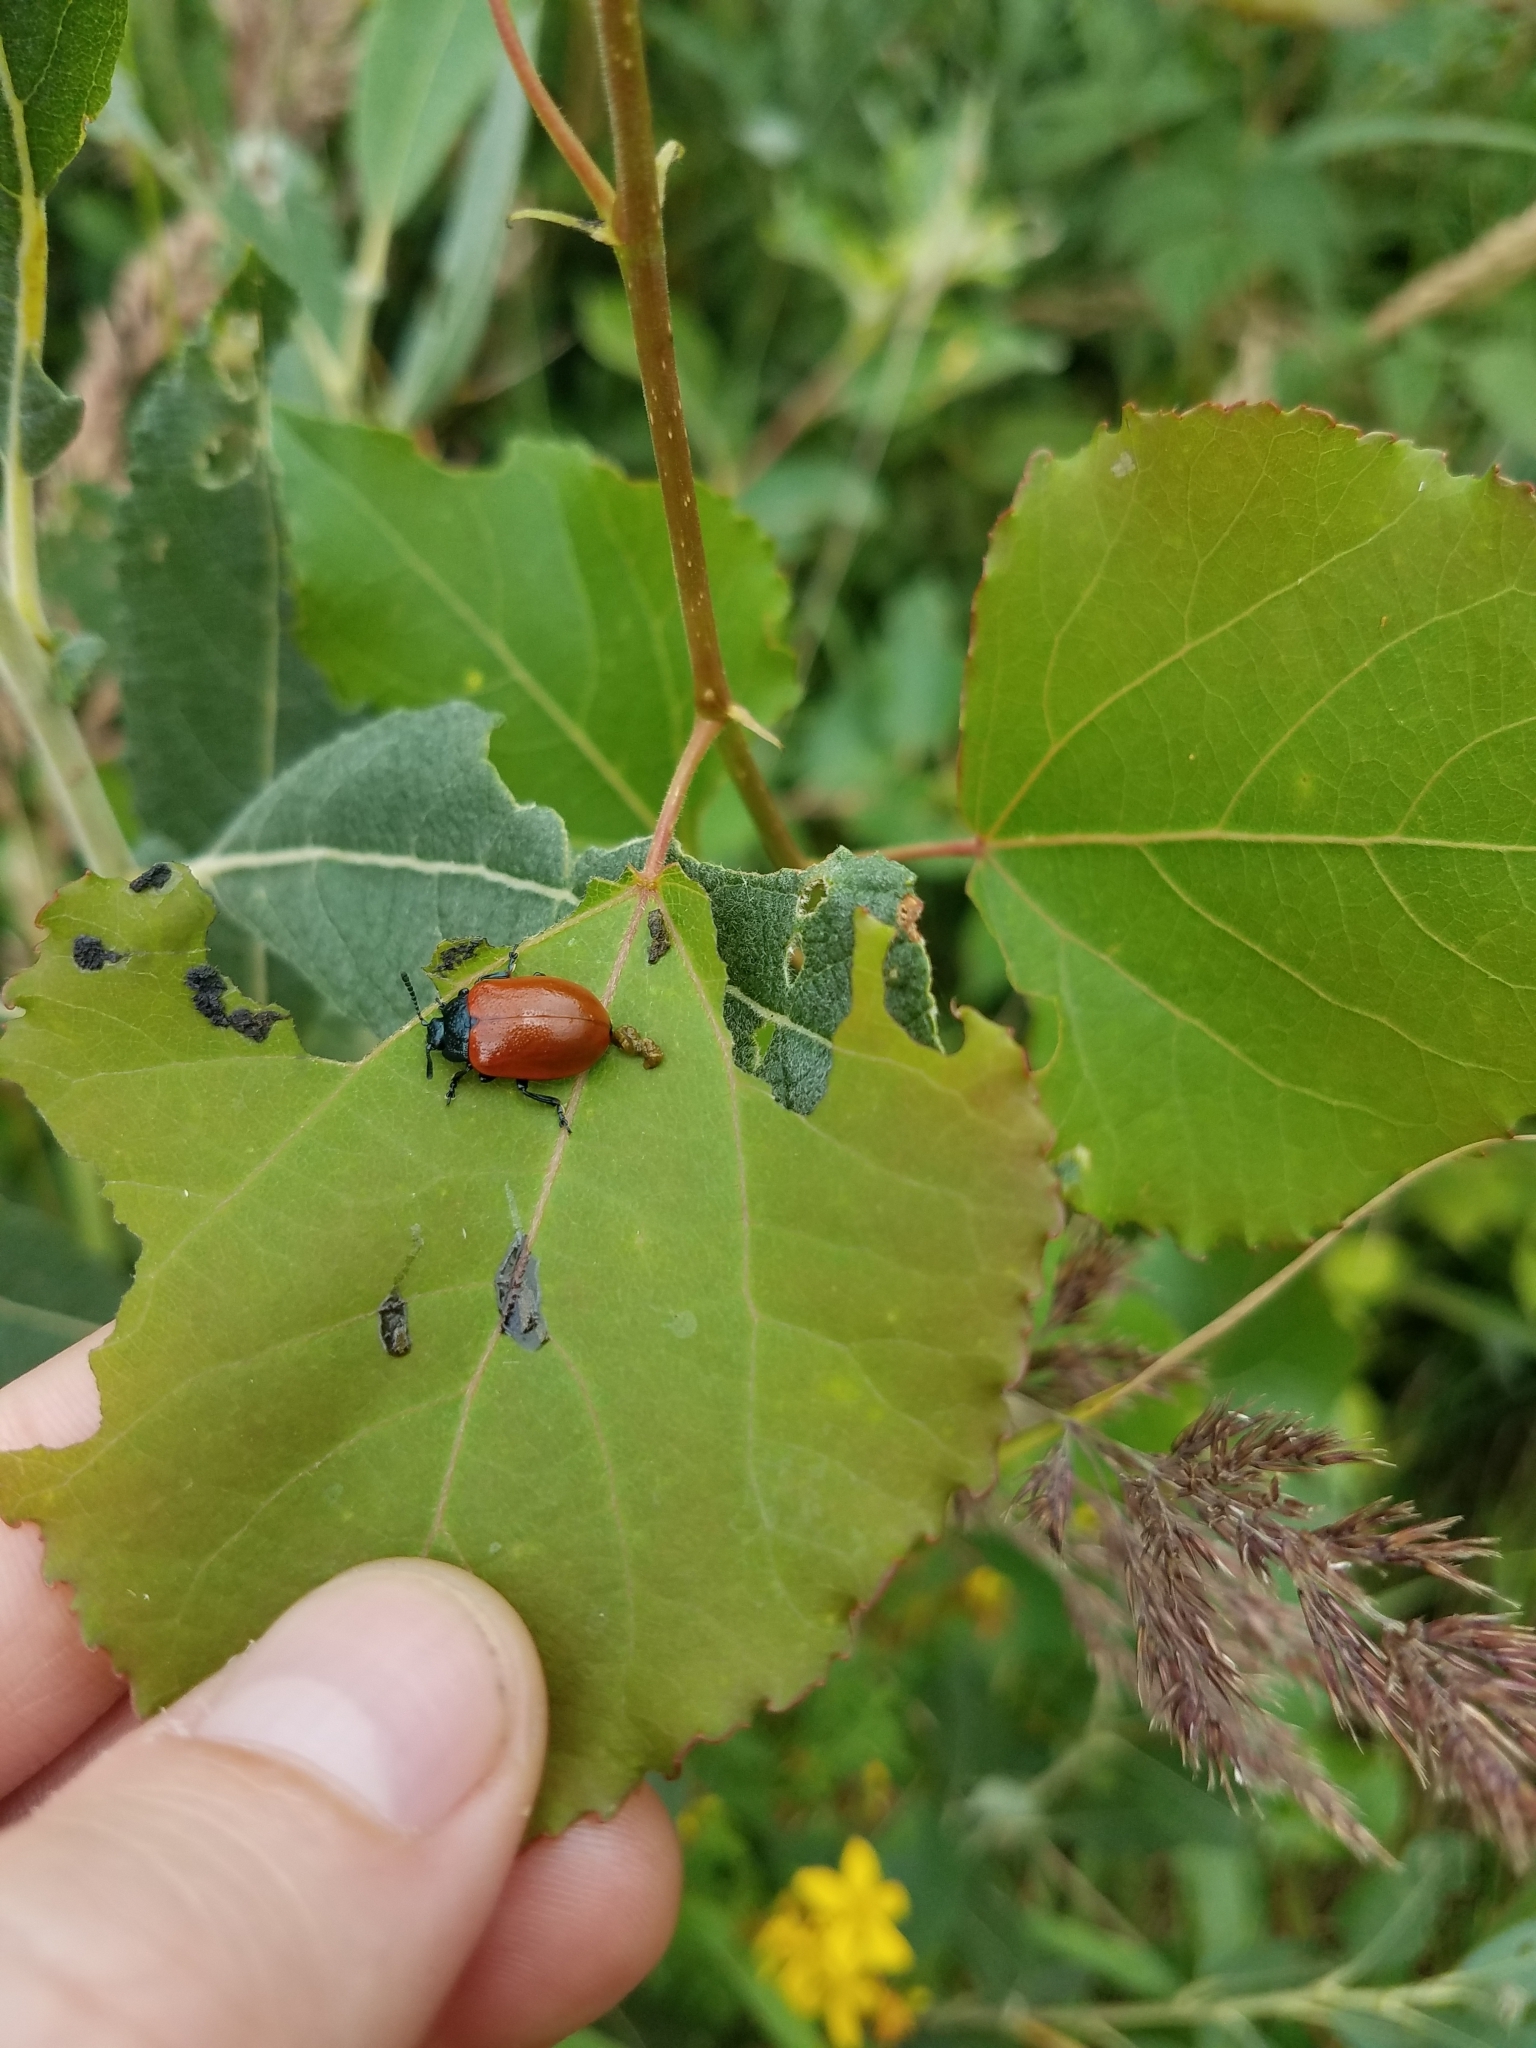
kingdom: Animalia
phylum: Arthropoda
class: Insecta
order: Coleoptera
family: Chrysomelidae
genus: Chrysomela
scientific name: Chrysomela populi
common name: Red poplar leaf beetle
